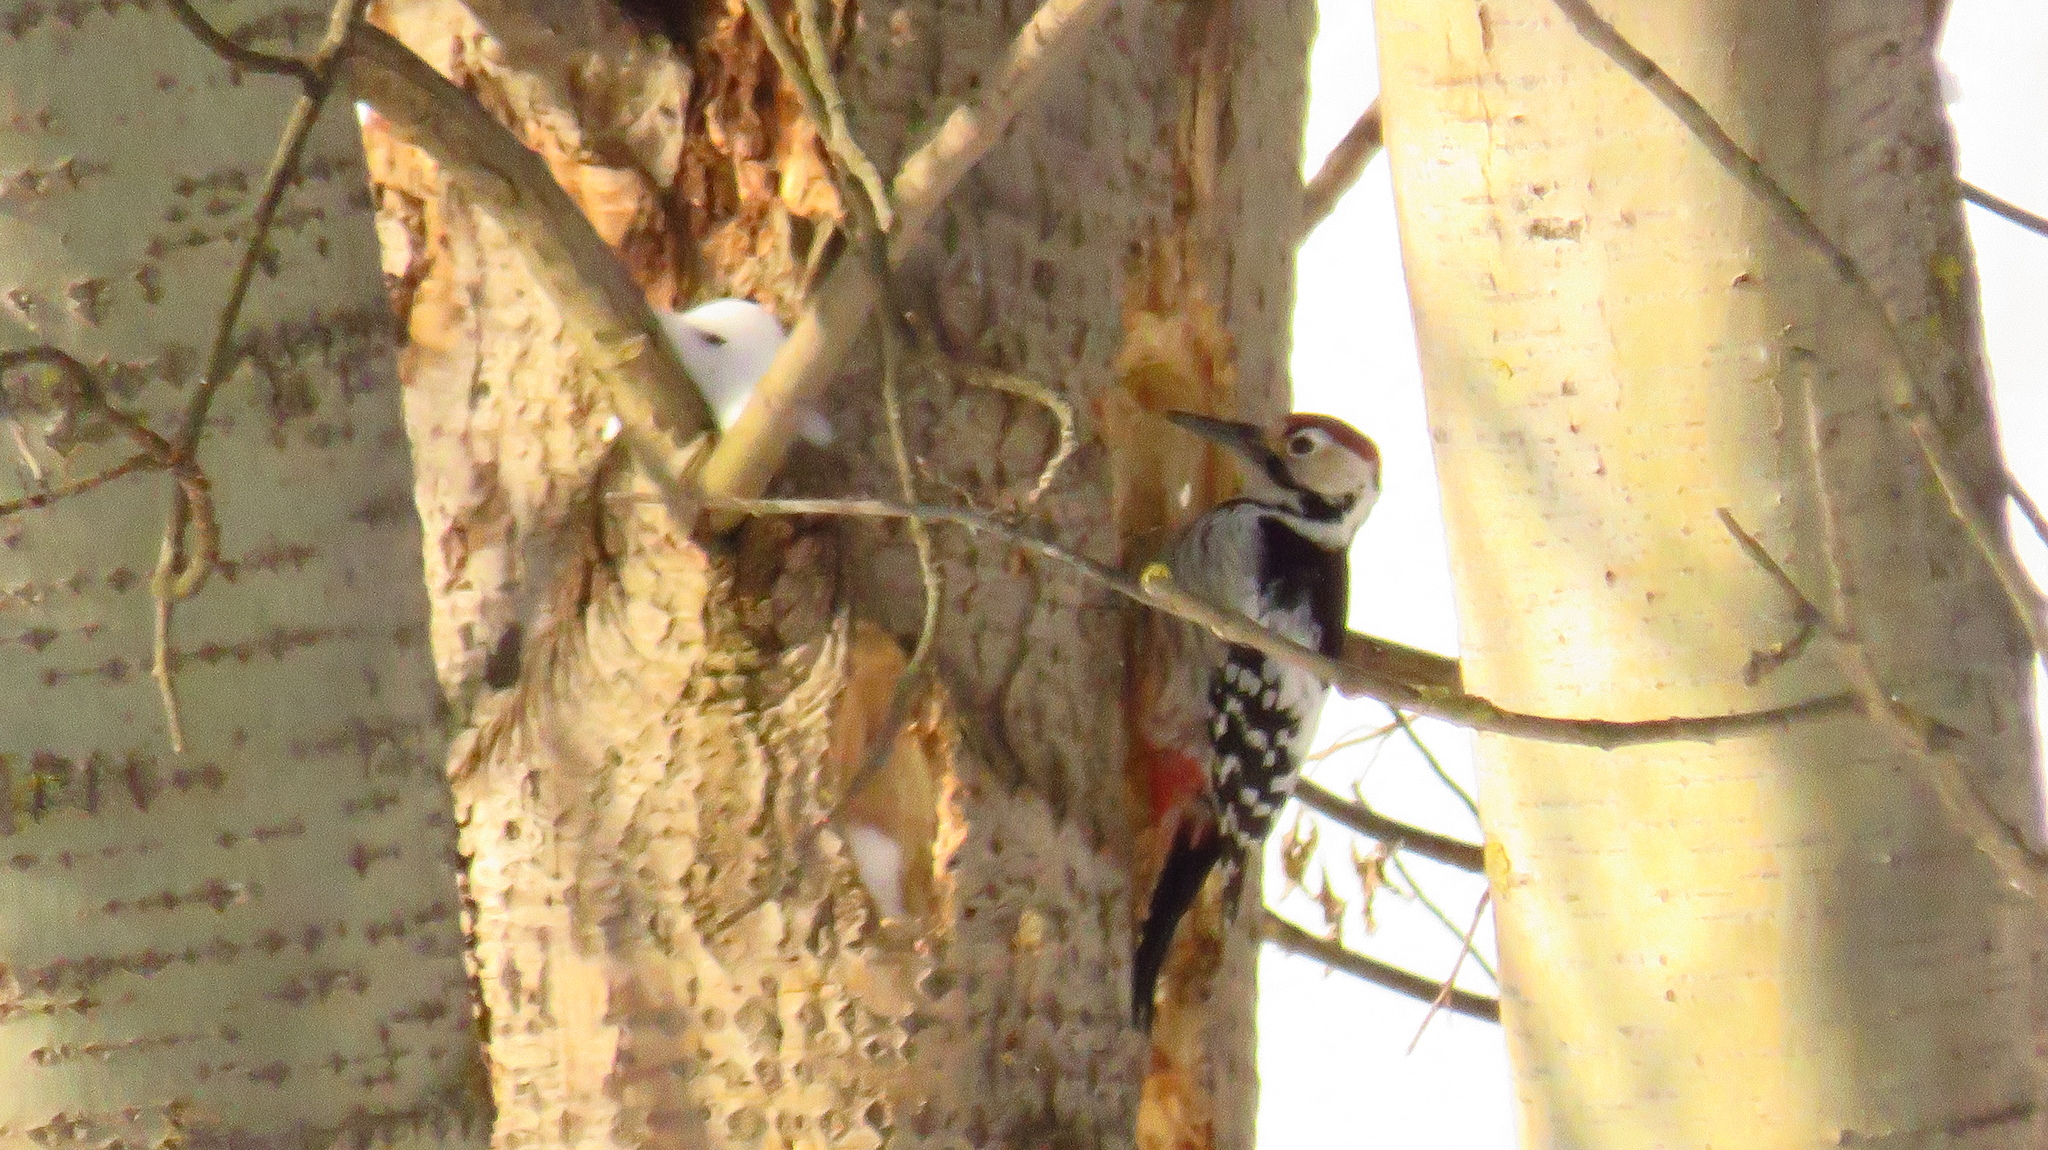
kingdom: Animalia
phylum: Chordata
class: Aves
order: Piciformes
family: Picidae
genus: Dendrocopos
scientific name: Dendrocopos leucotos
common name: White-backed woodpecker
